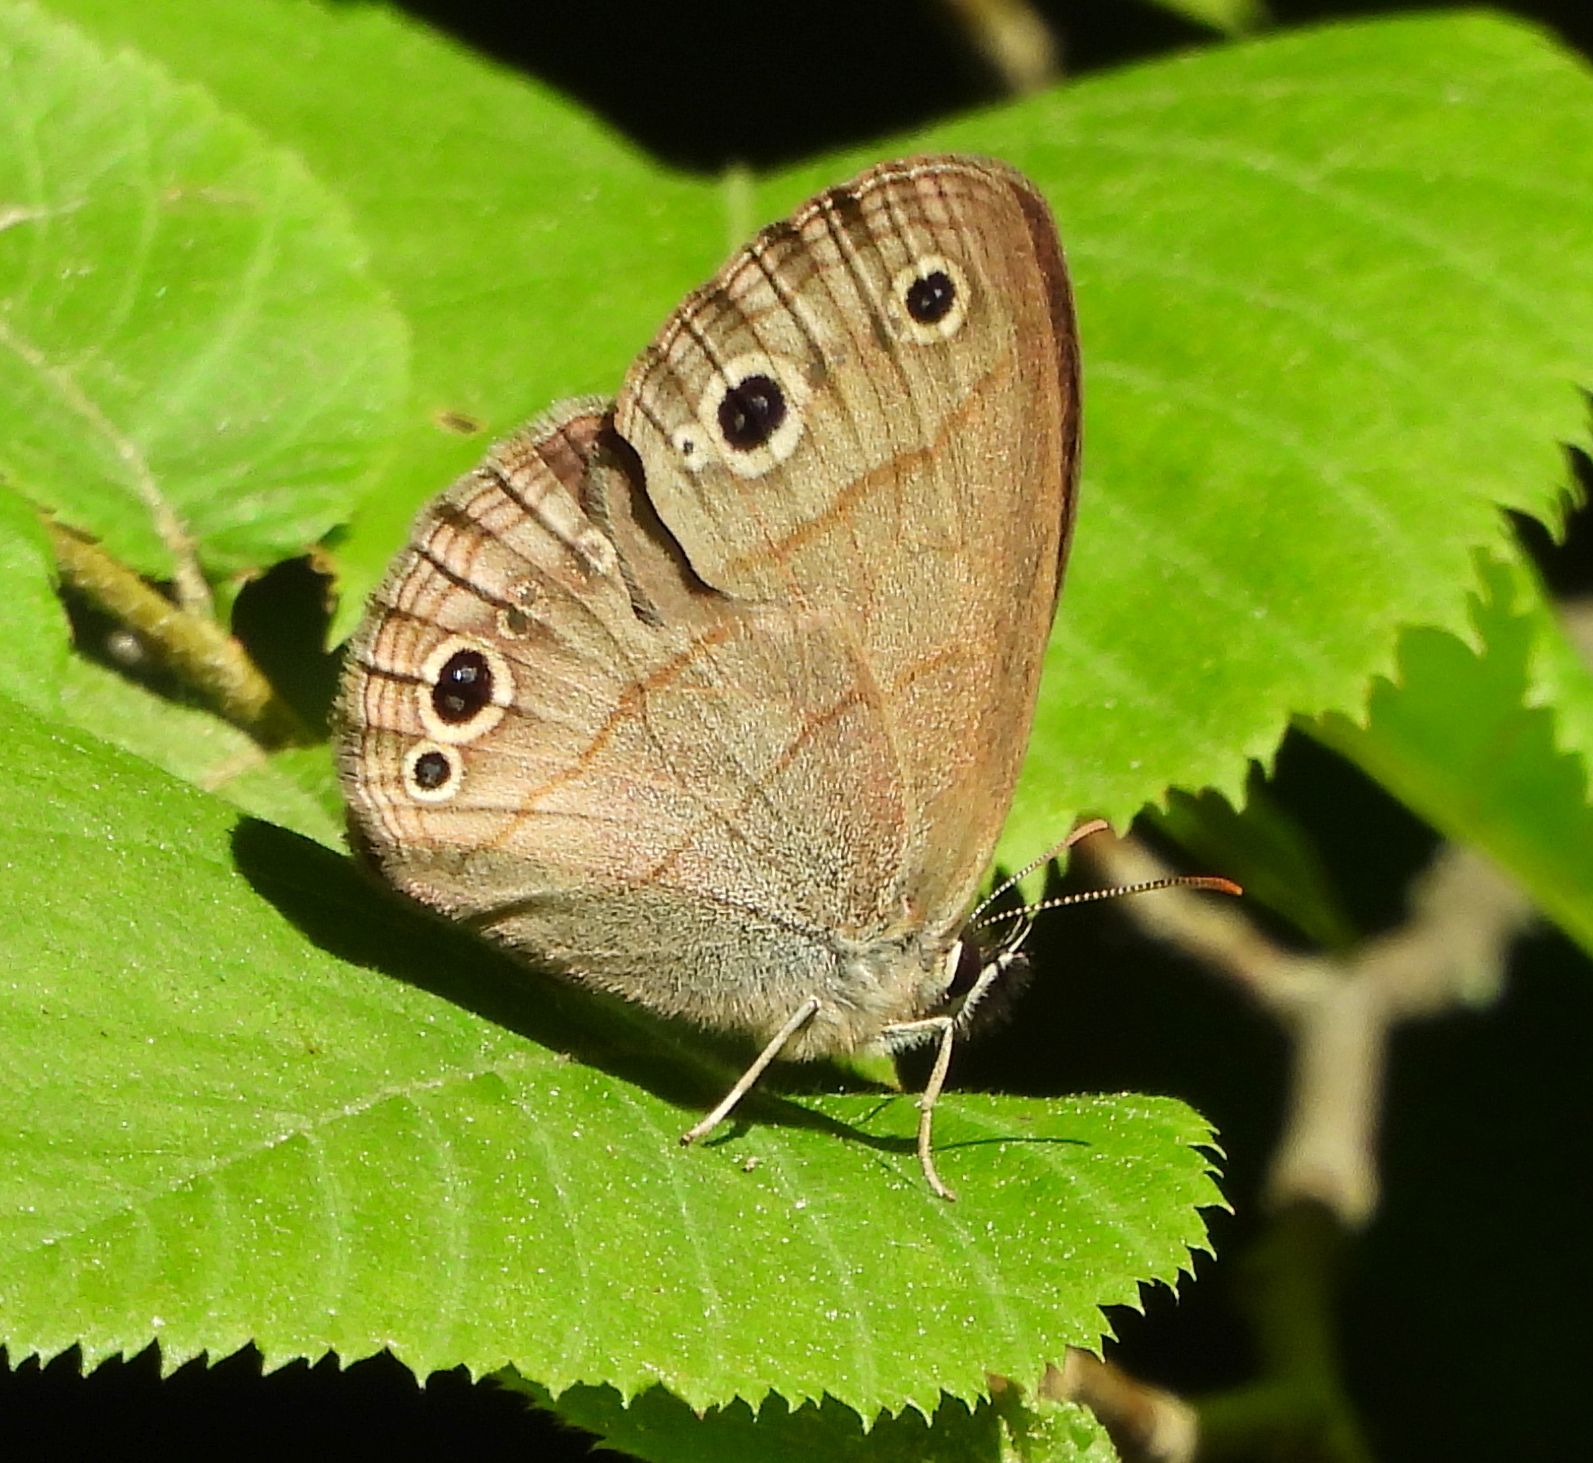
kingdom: Animalia
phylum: Arthropoda
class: Insecta
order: Lepidoptera
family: Nymphalidae
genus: Euptychia
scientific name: Euptychia cymela
